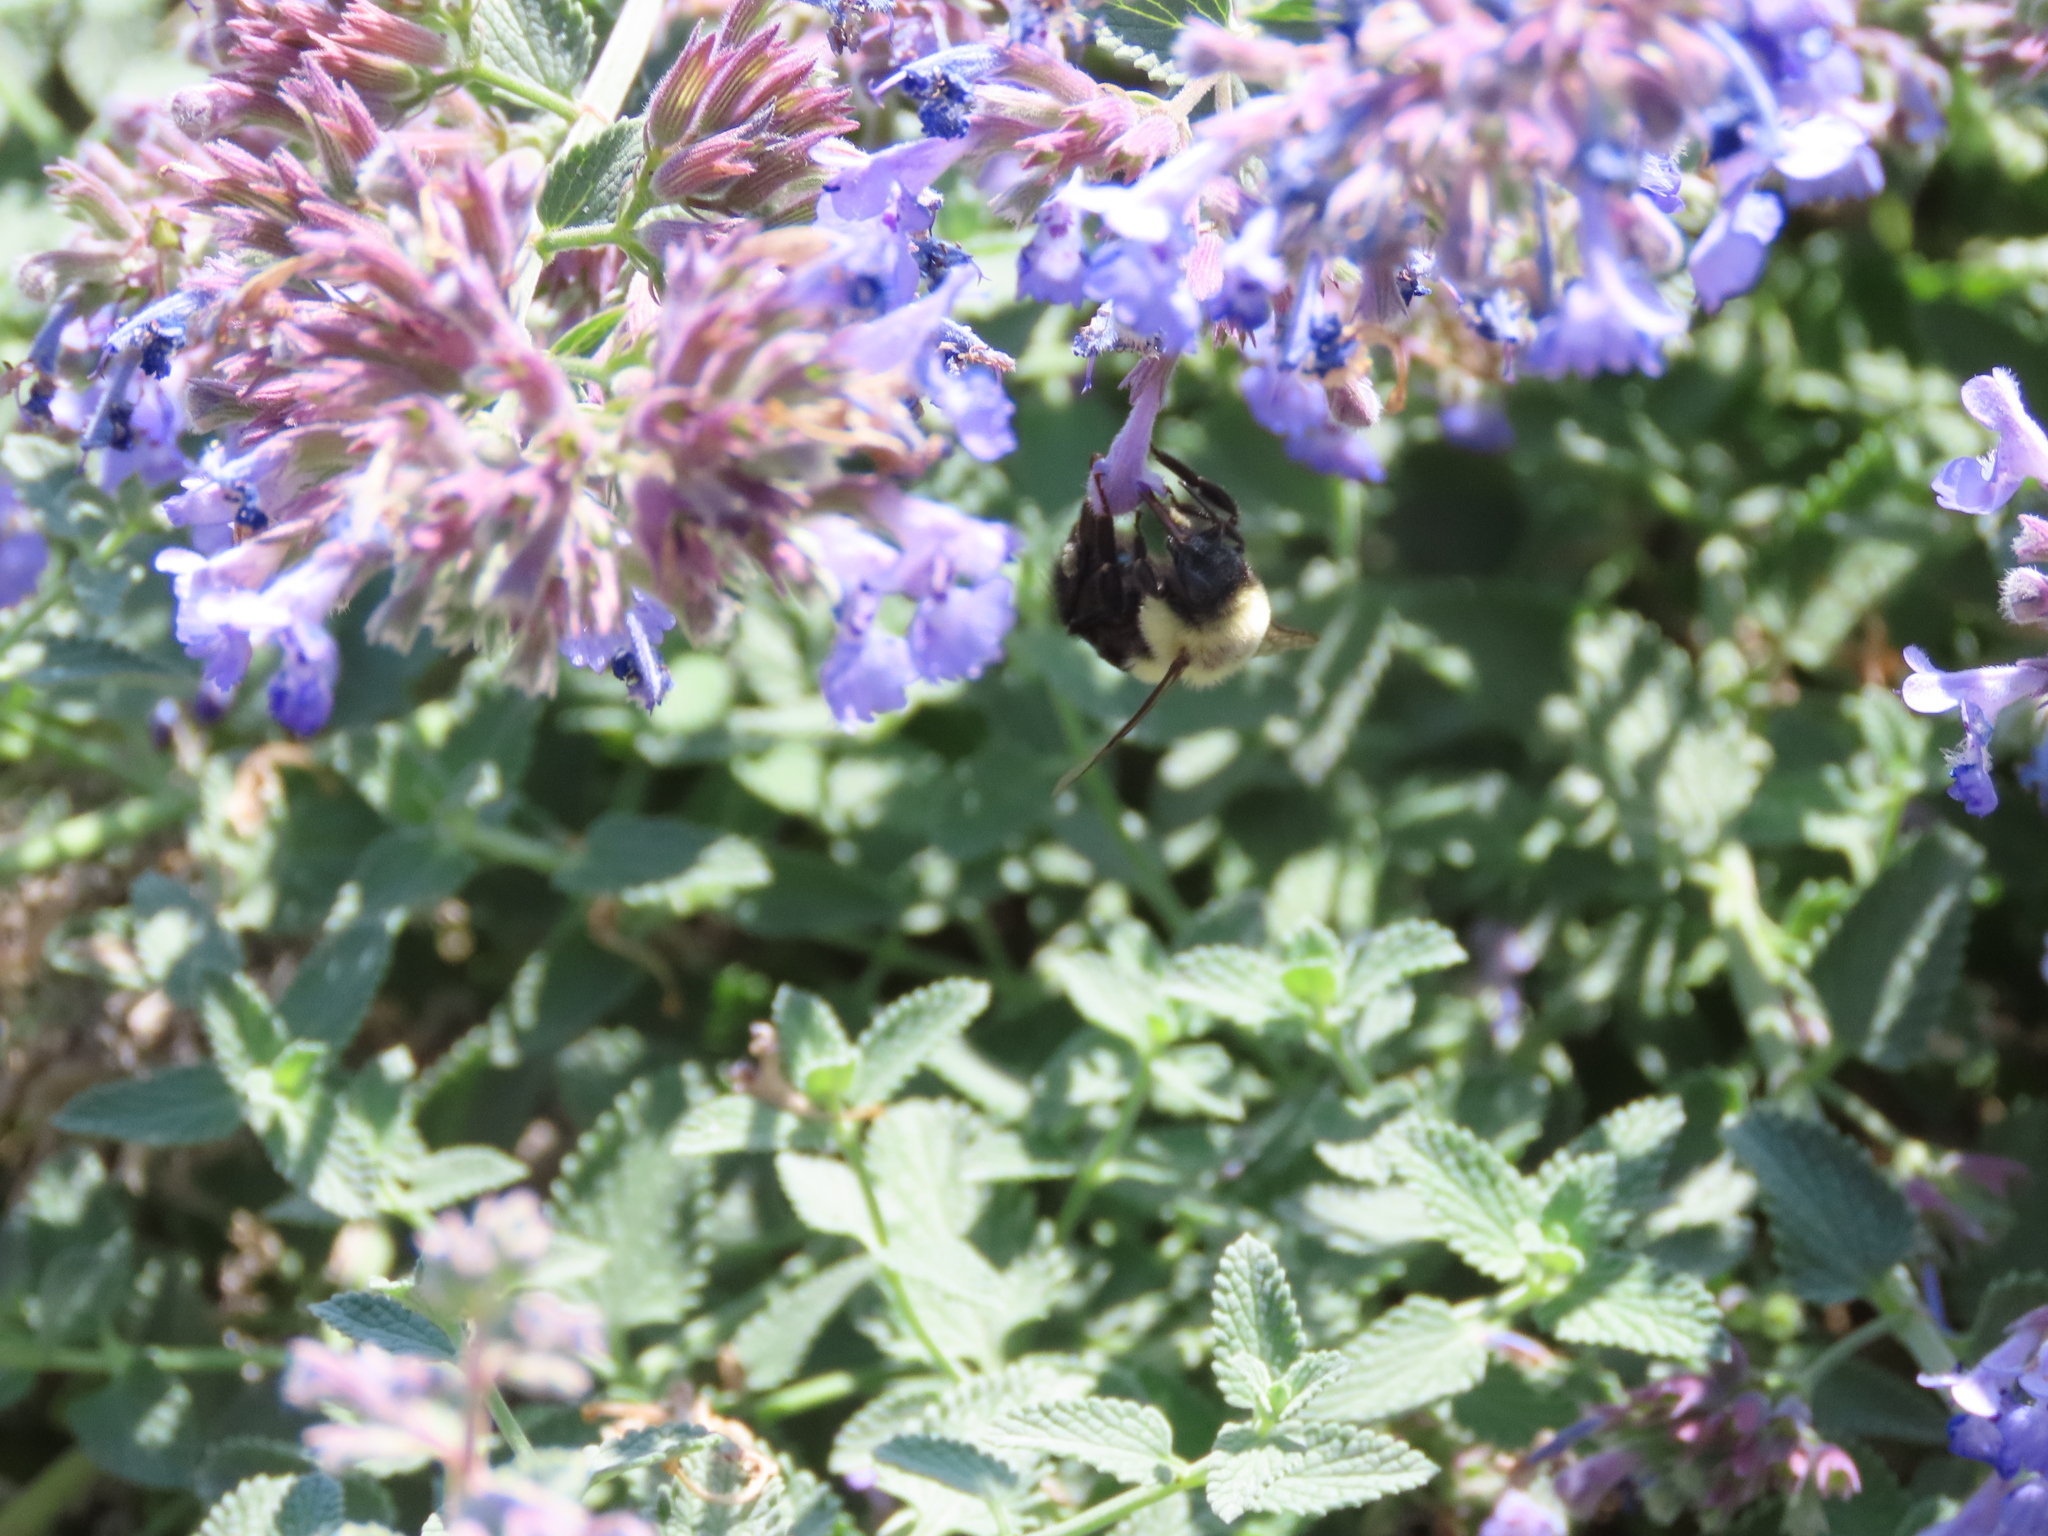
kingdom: Animalia
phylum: Arthropoda
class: Insecta
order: Hymenoptera
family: Apidae
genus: Bombus
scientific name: Bombus impatiens
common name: Common eastern bumble bee
